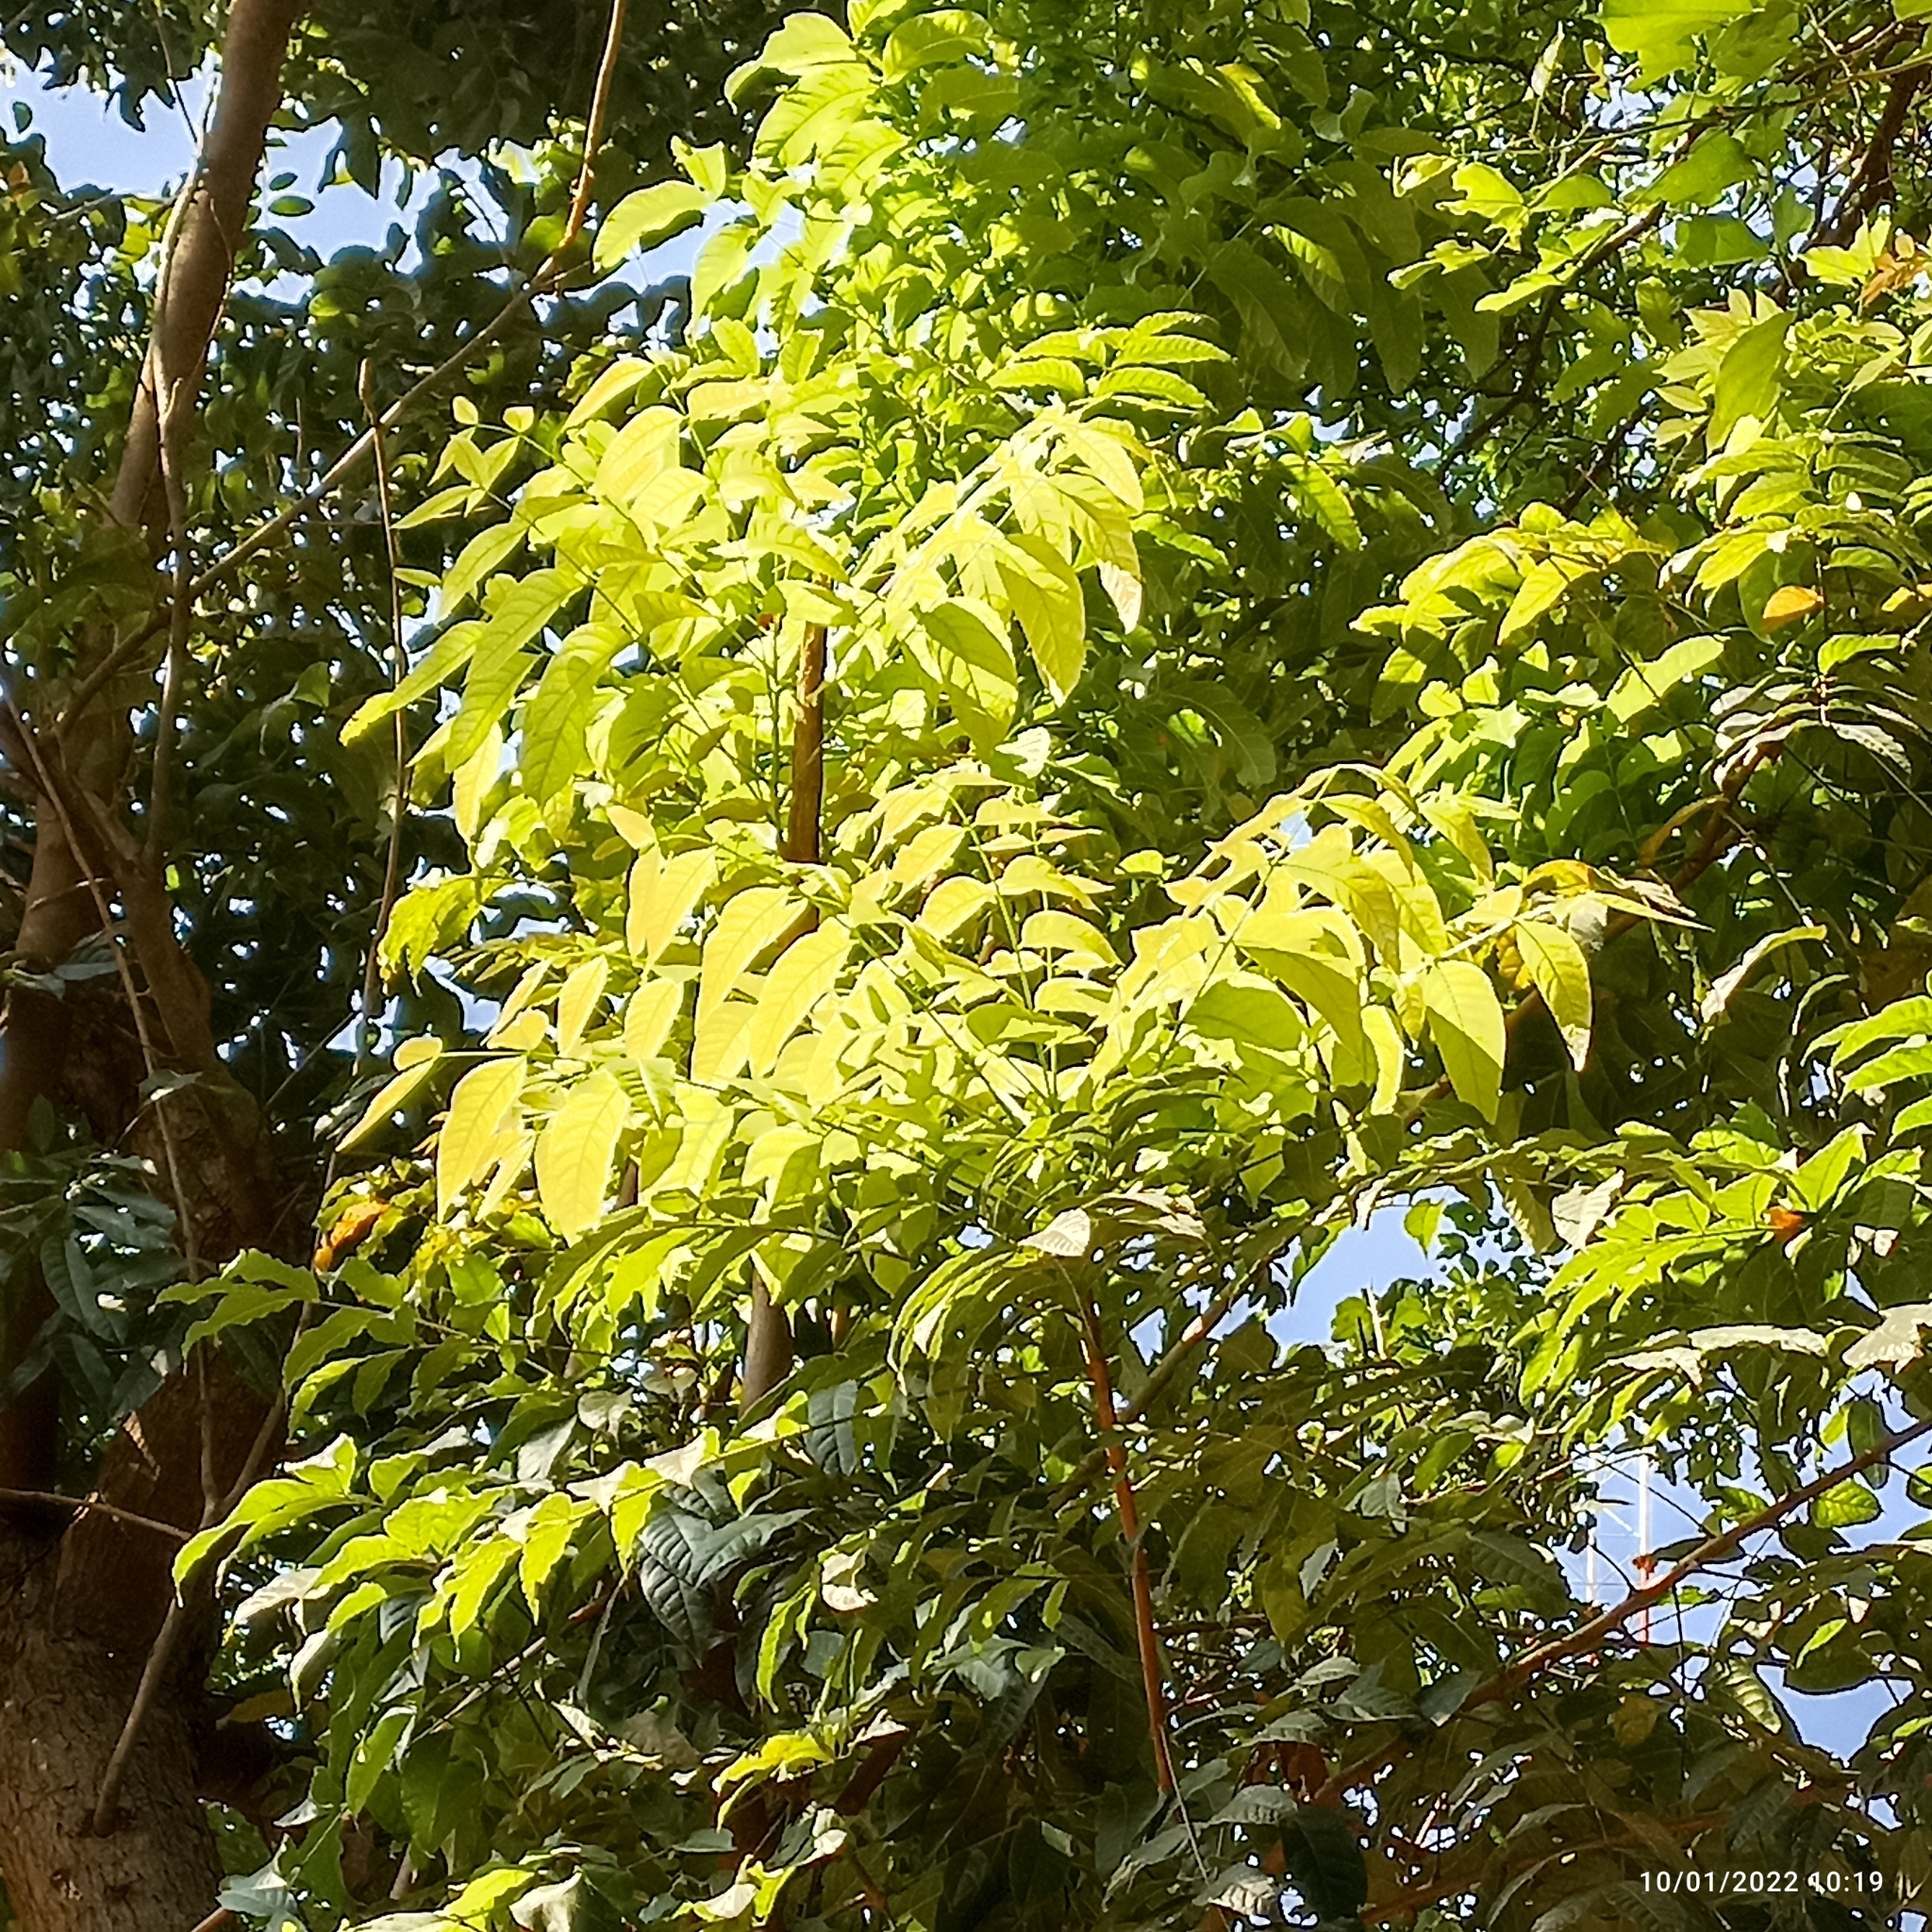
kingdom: Plantae
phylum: Tracheophyta
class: Magnoliopsida
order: Sapindales
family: Meliaceae
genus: Swietenia
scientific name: Swietenia macrophylla
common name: Honduras mahogany
